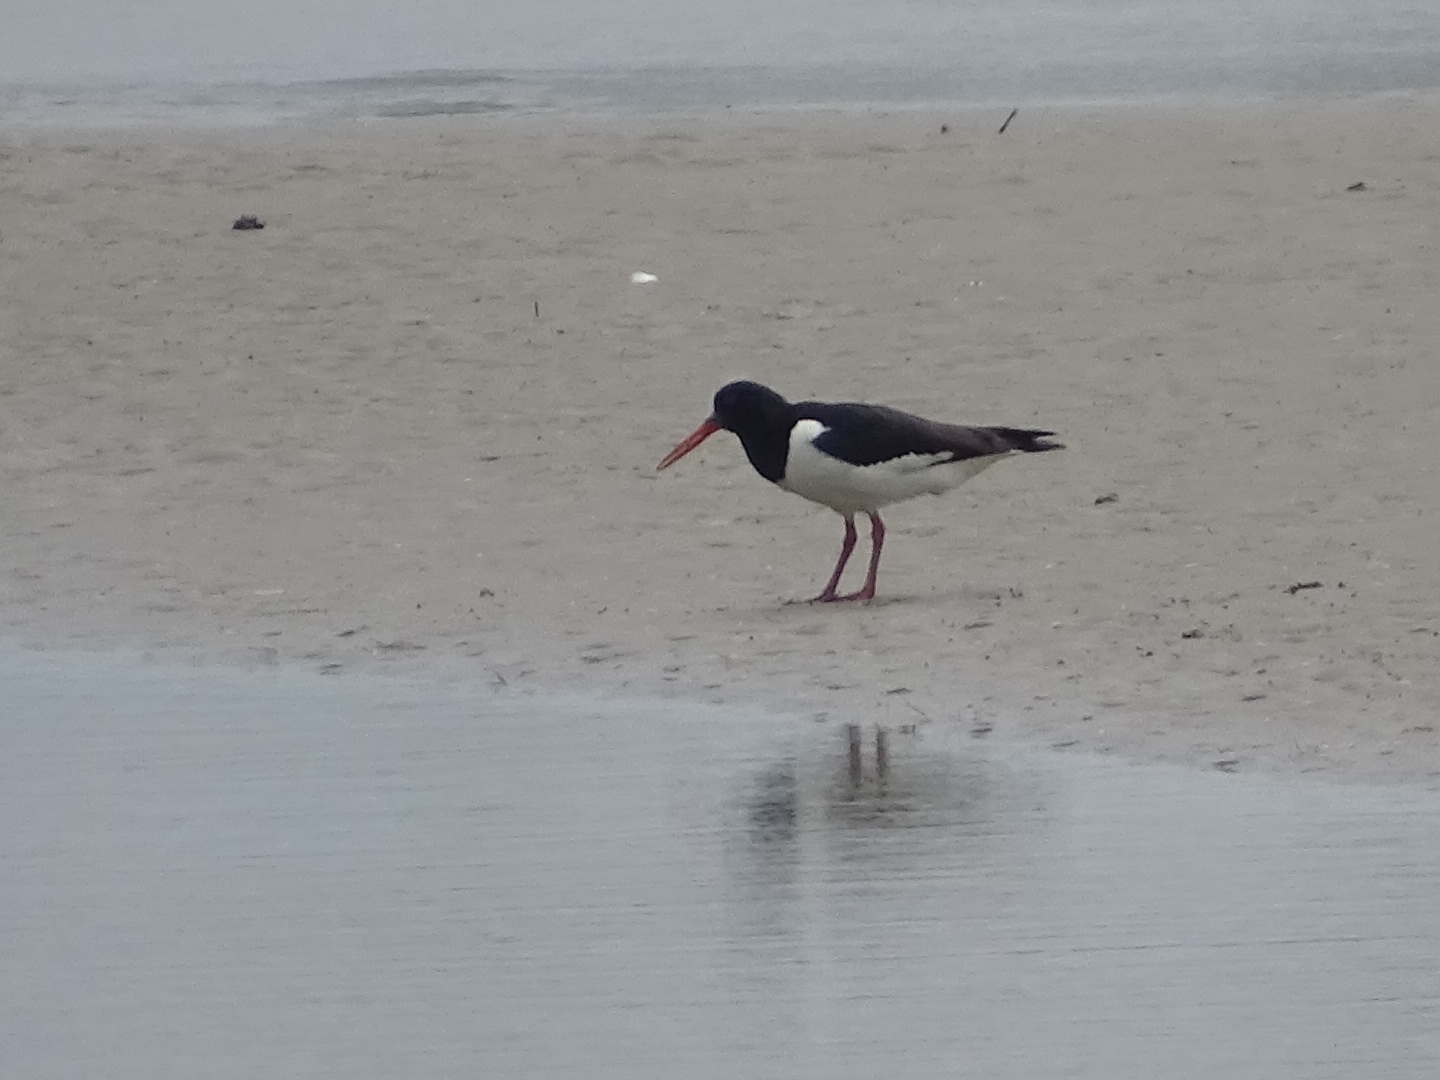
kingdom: Animalia
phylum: Chordata
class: Aves
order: Charadriiformes
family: Haematopodidae
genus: Haematopus
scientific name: Haematopus ostralegus
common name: Eurasian oystercatcher
